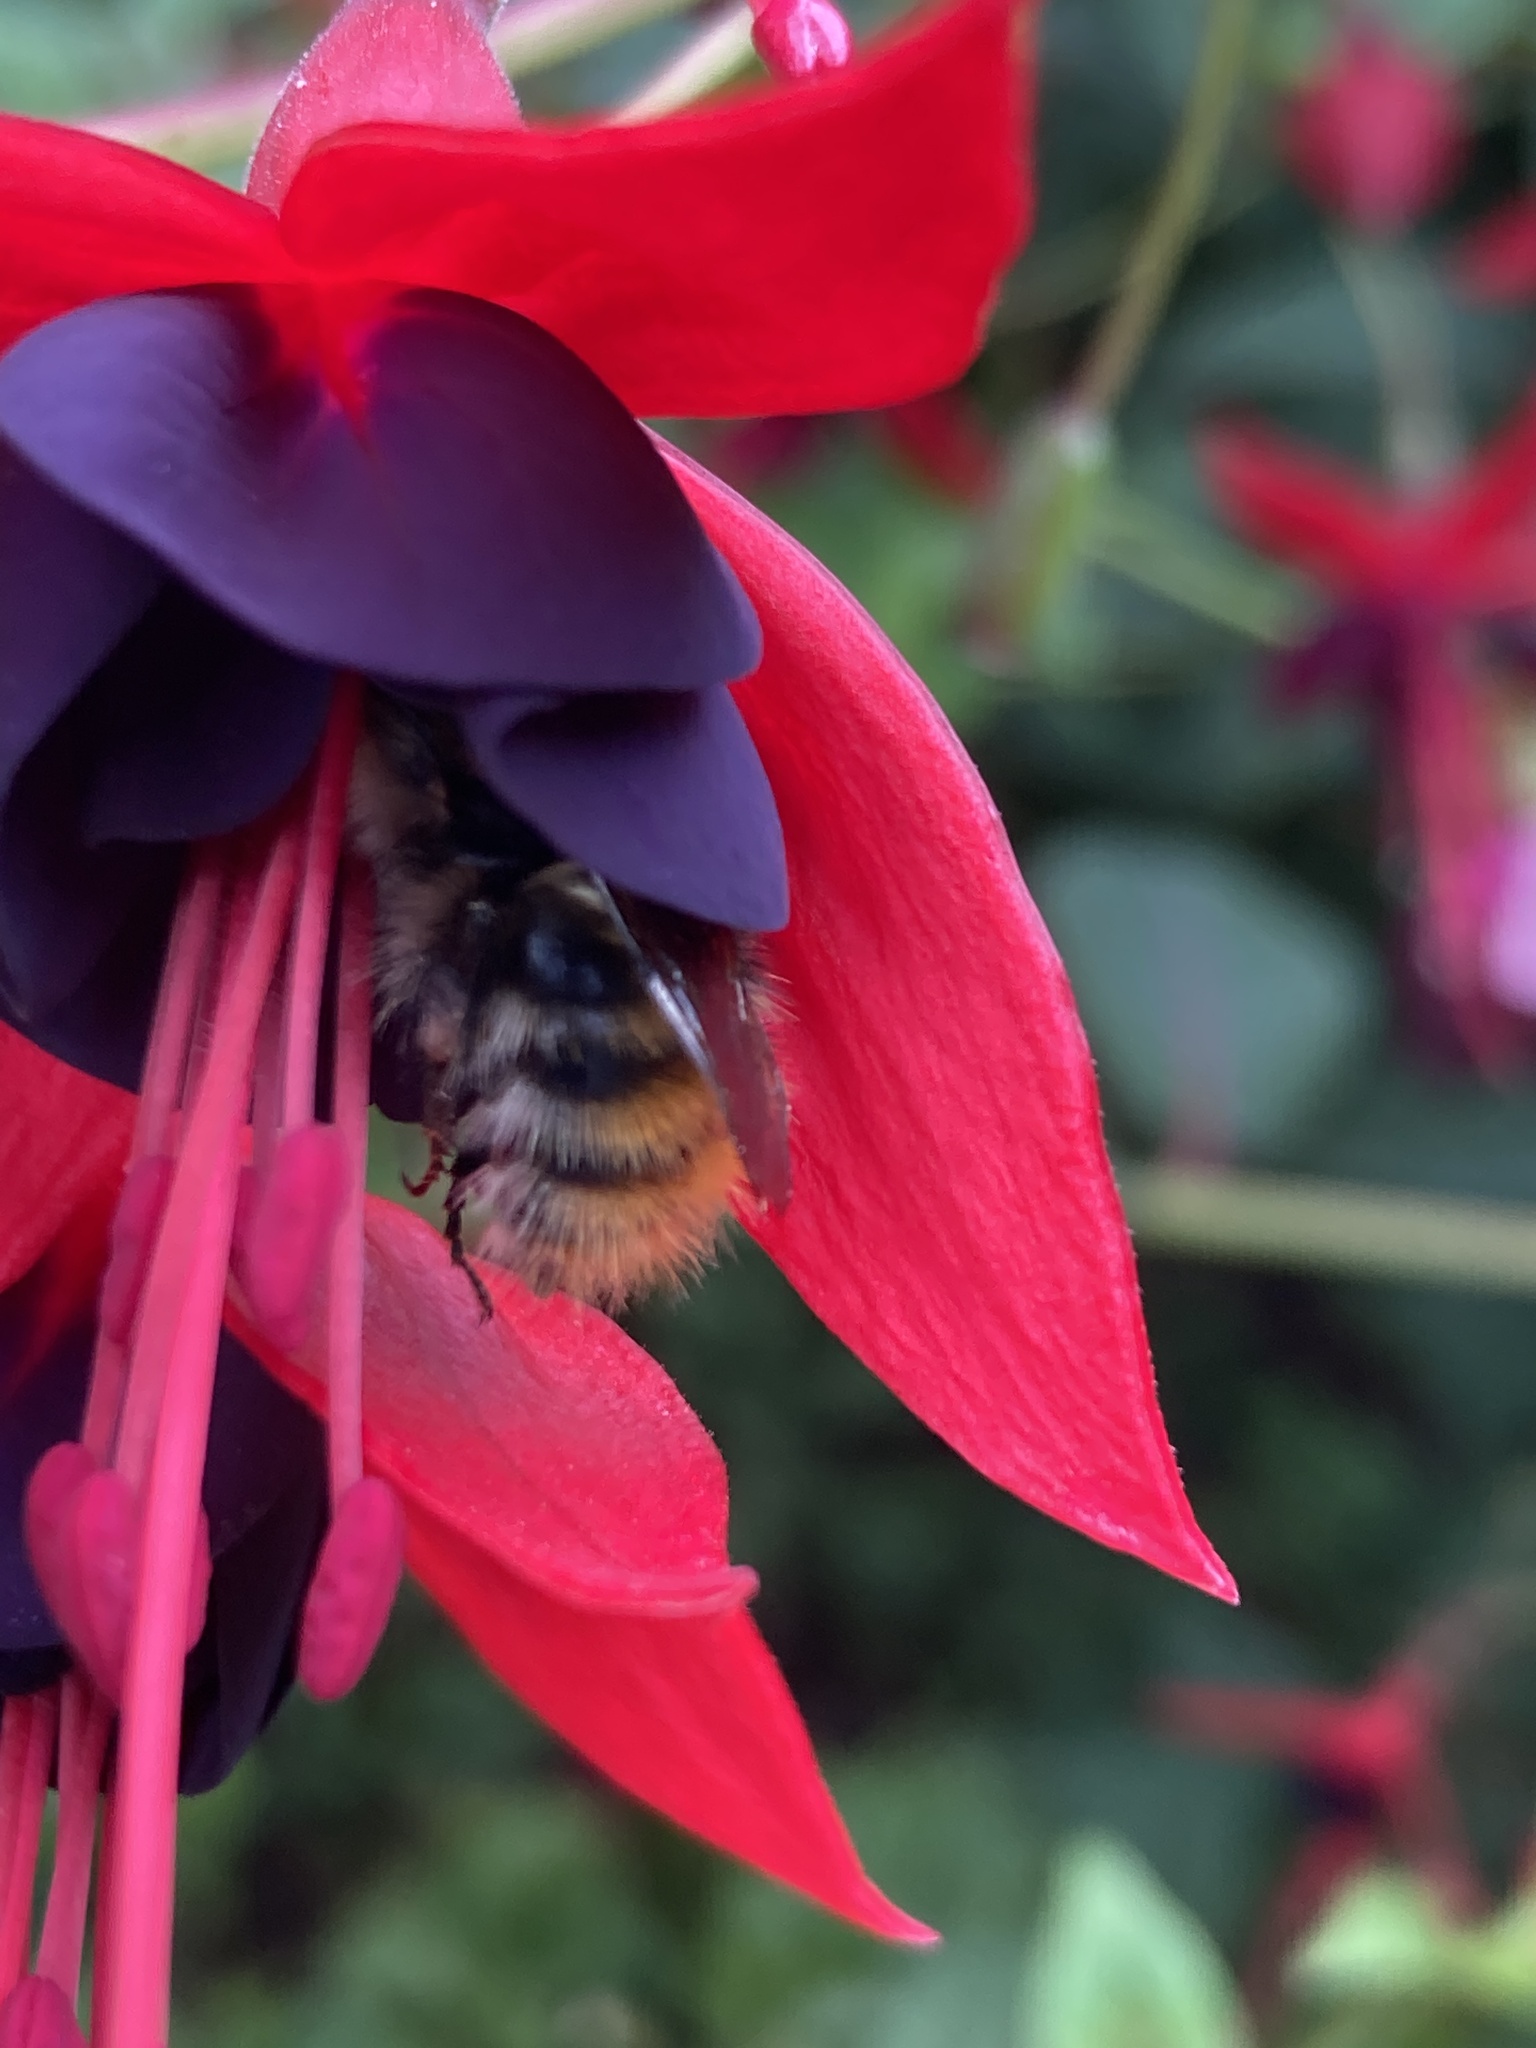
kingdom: Animalia
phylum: Arthropoda
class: Insecta
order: Hymenoptera
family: Apidae
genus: Bombus
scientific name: Bombus pascuorum
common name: Common carder bee
